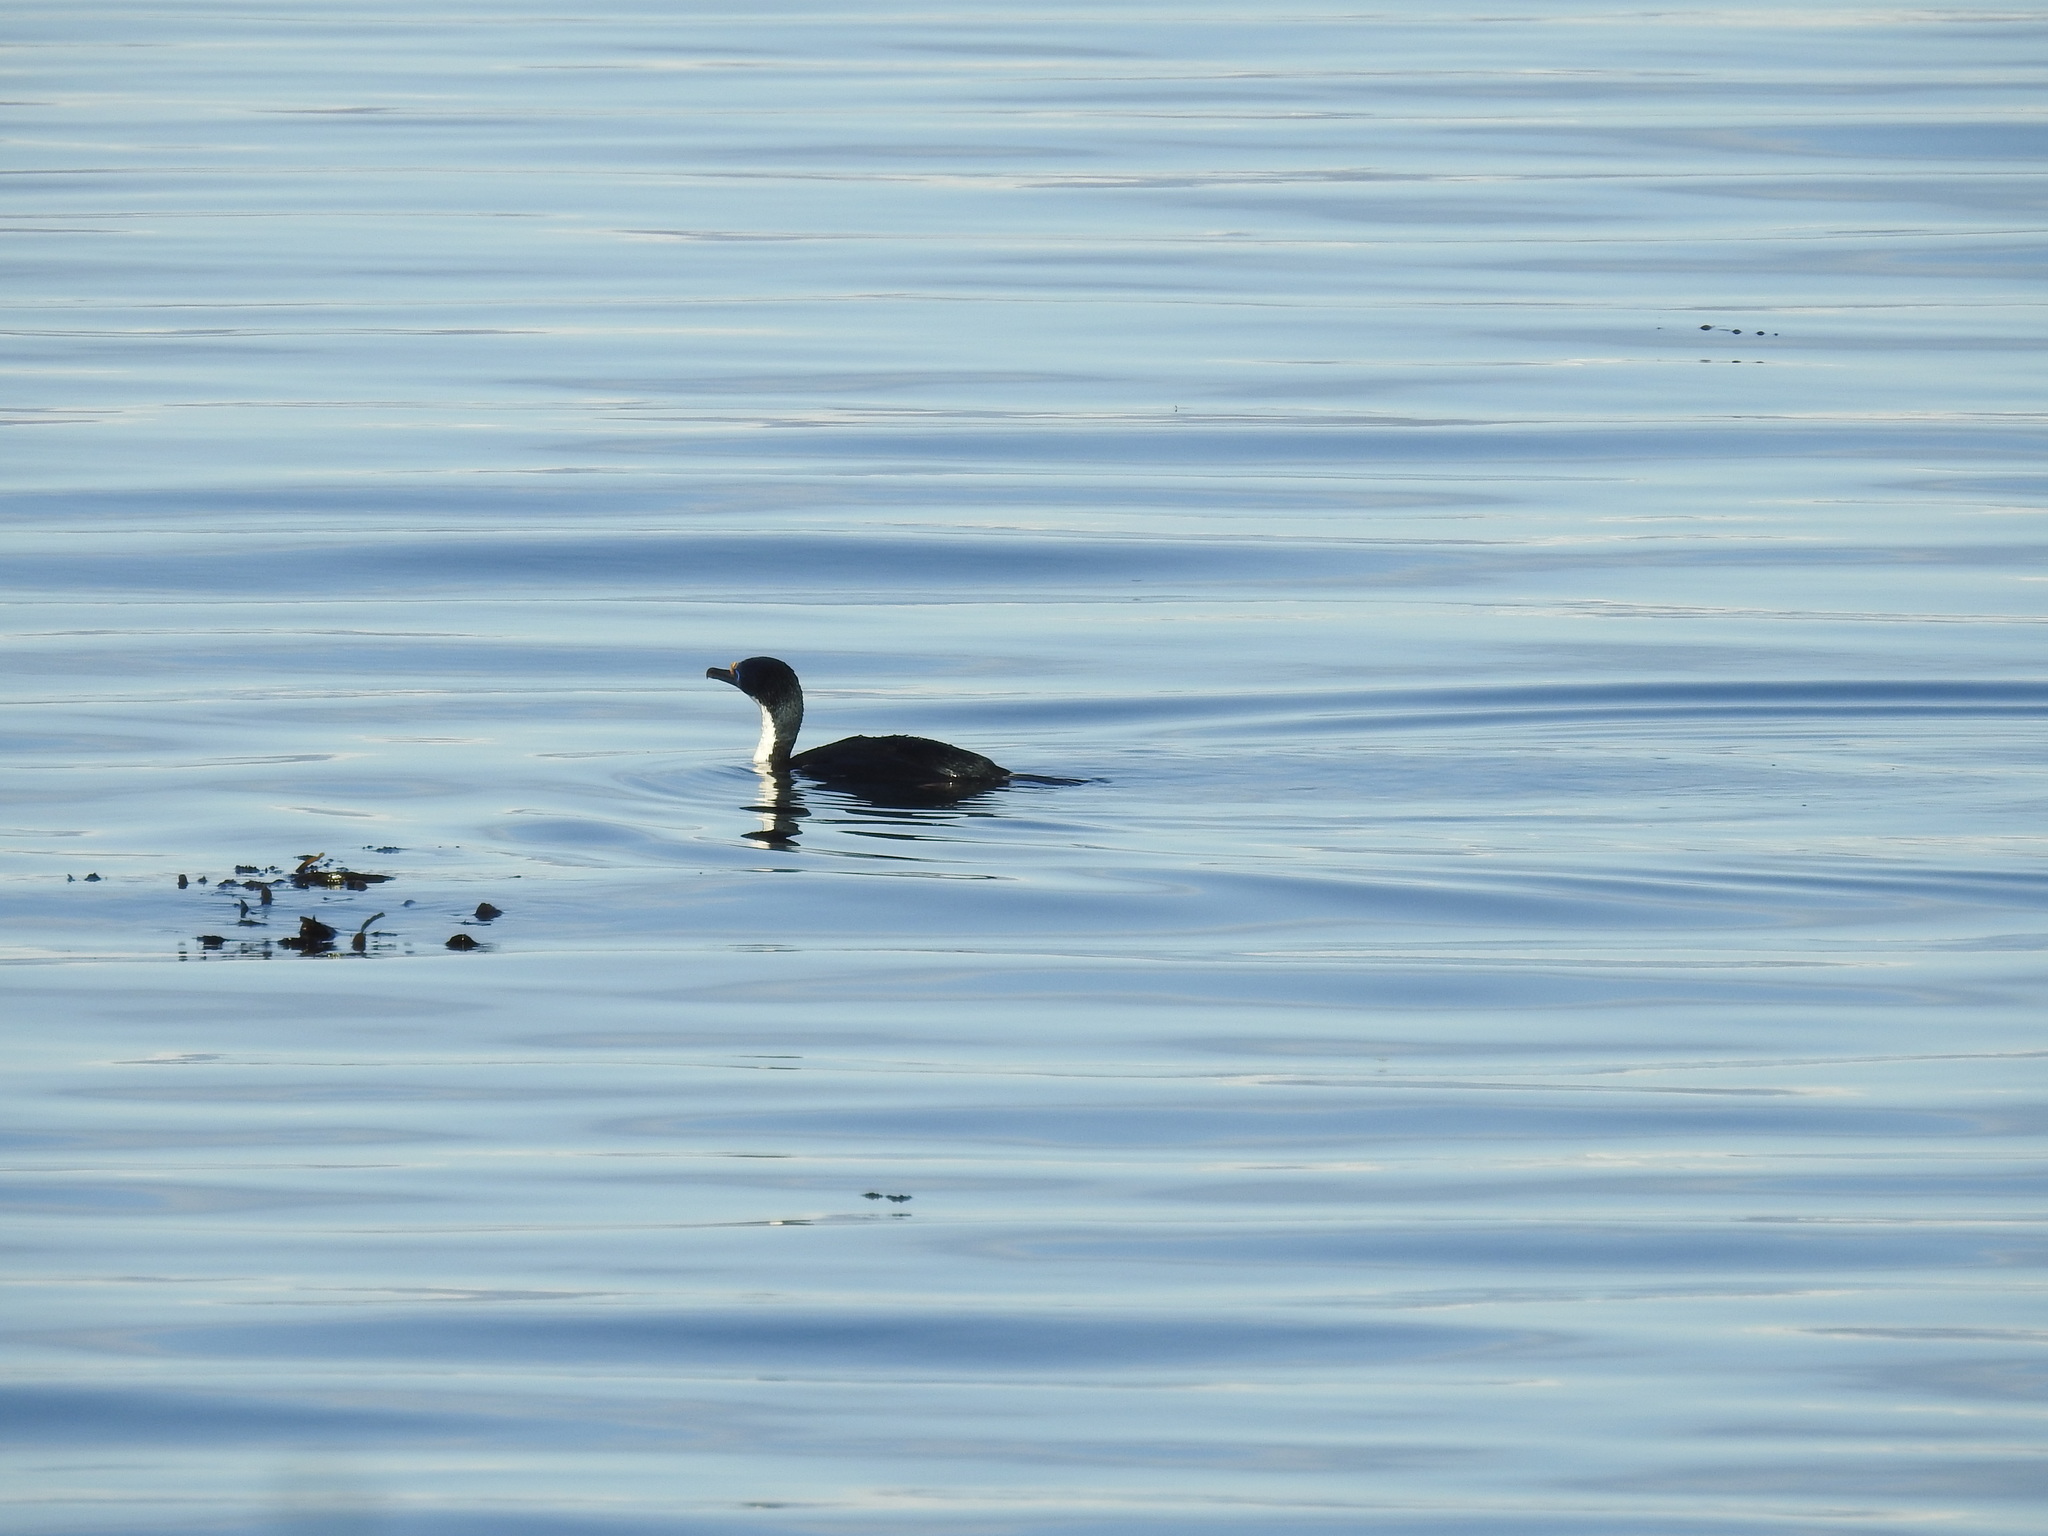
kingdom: Animalia
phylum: Chordata
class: Aves
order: Suliformes
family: Phalacrocoracidae
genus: Leucocarbo
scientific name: Leucocarbo atriceps
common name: Imperial shag
